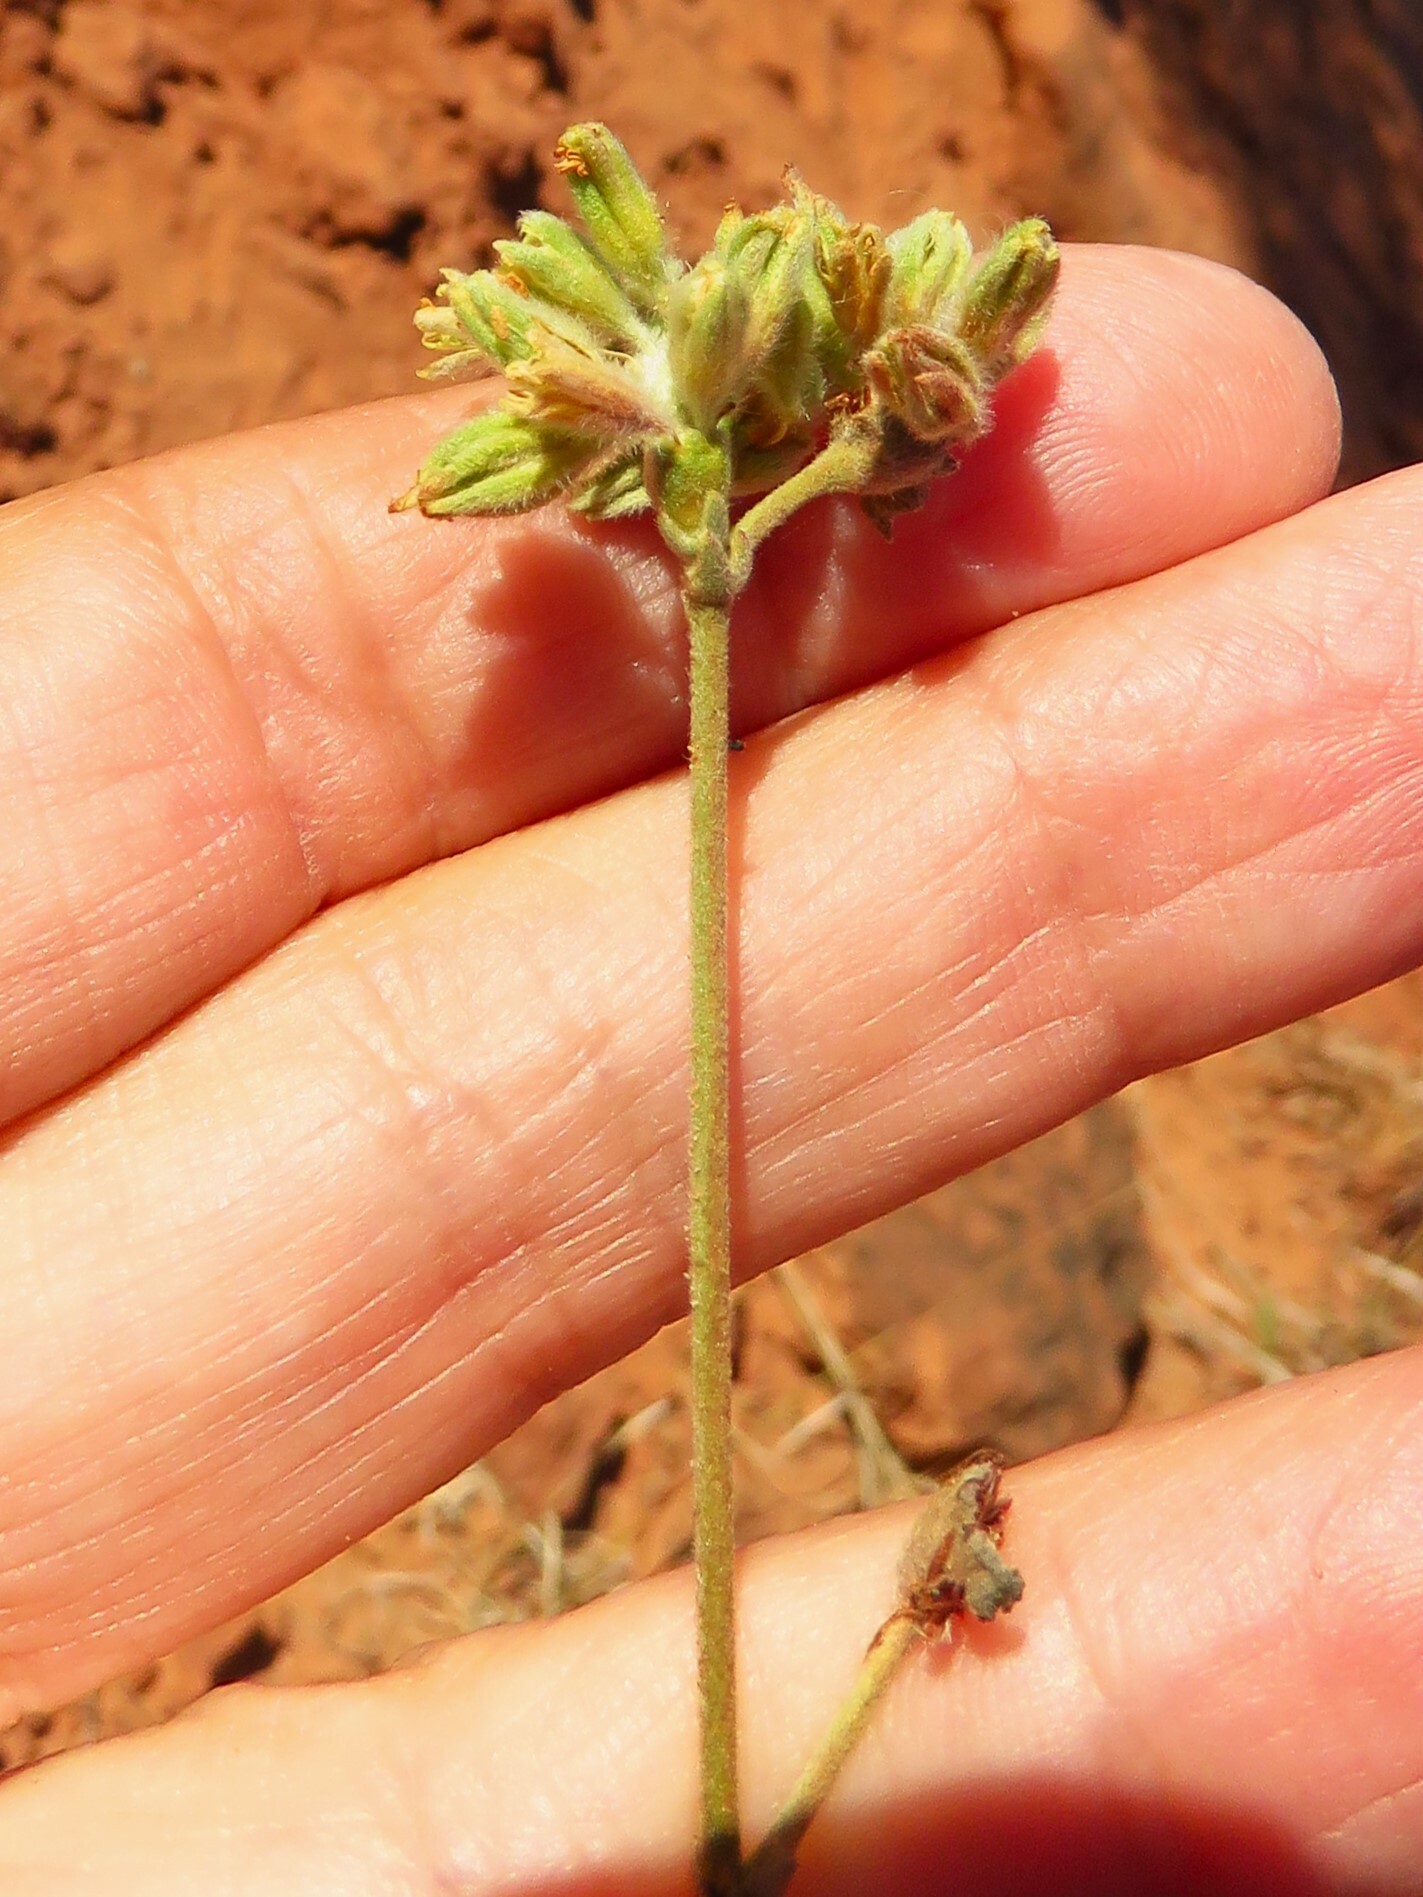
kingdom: Plantae
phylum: Tracheophyta
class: Magnoliopsida
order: Caryophyllales
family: Polygonaceae
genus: Eriogonum
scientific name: Eriogonum longifolium
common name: Longleaf wild buckwheat
